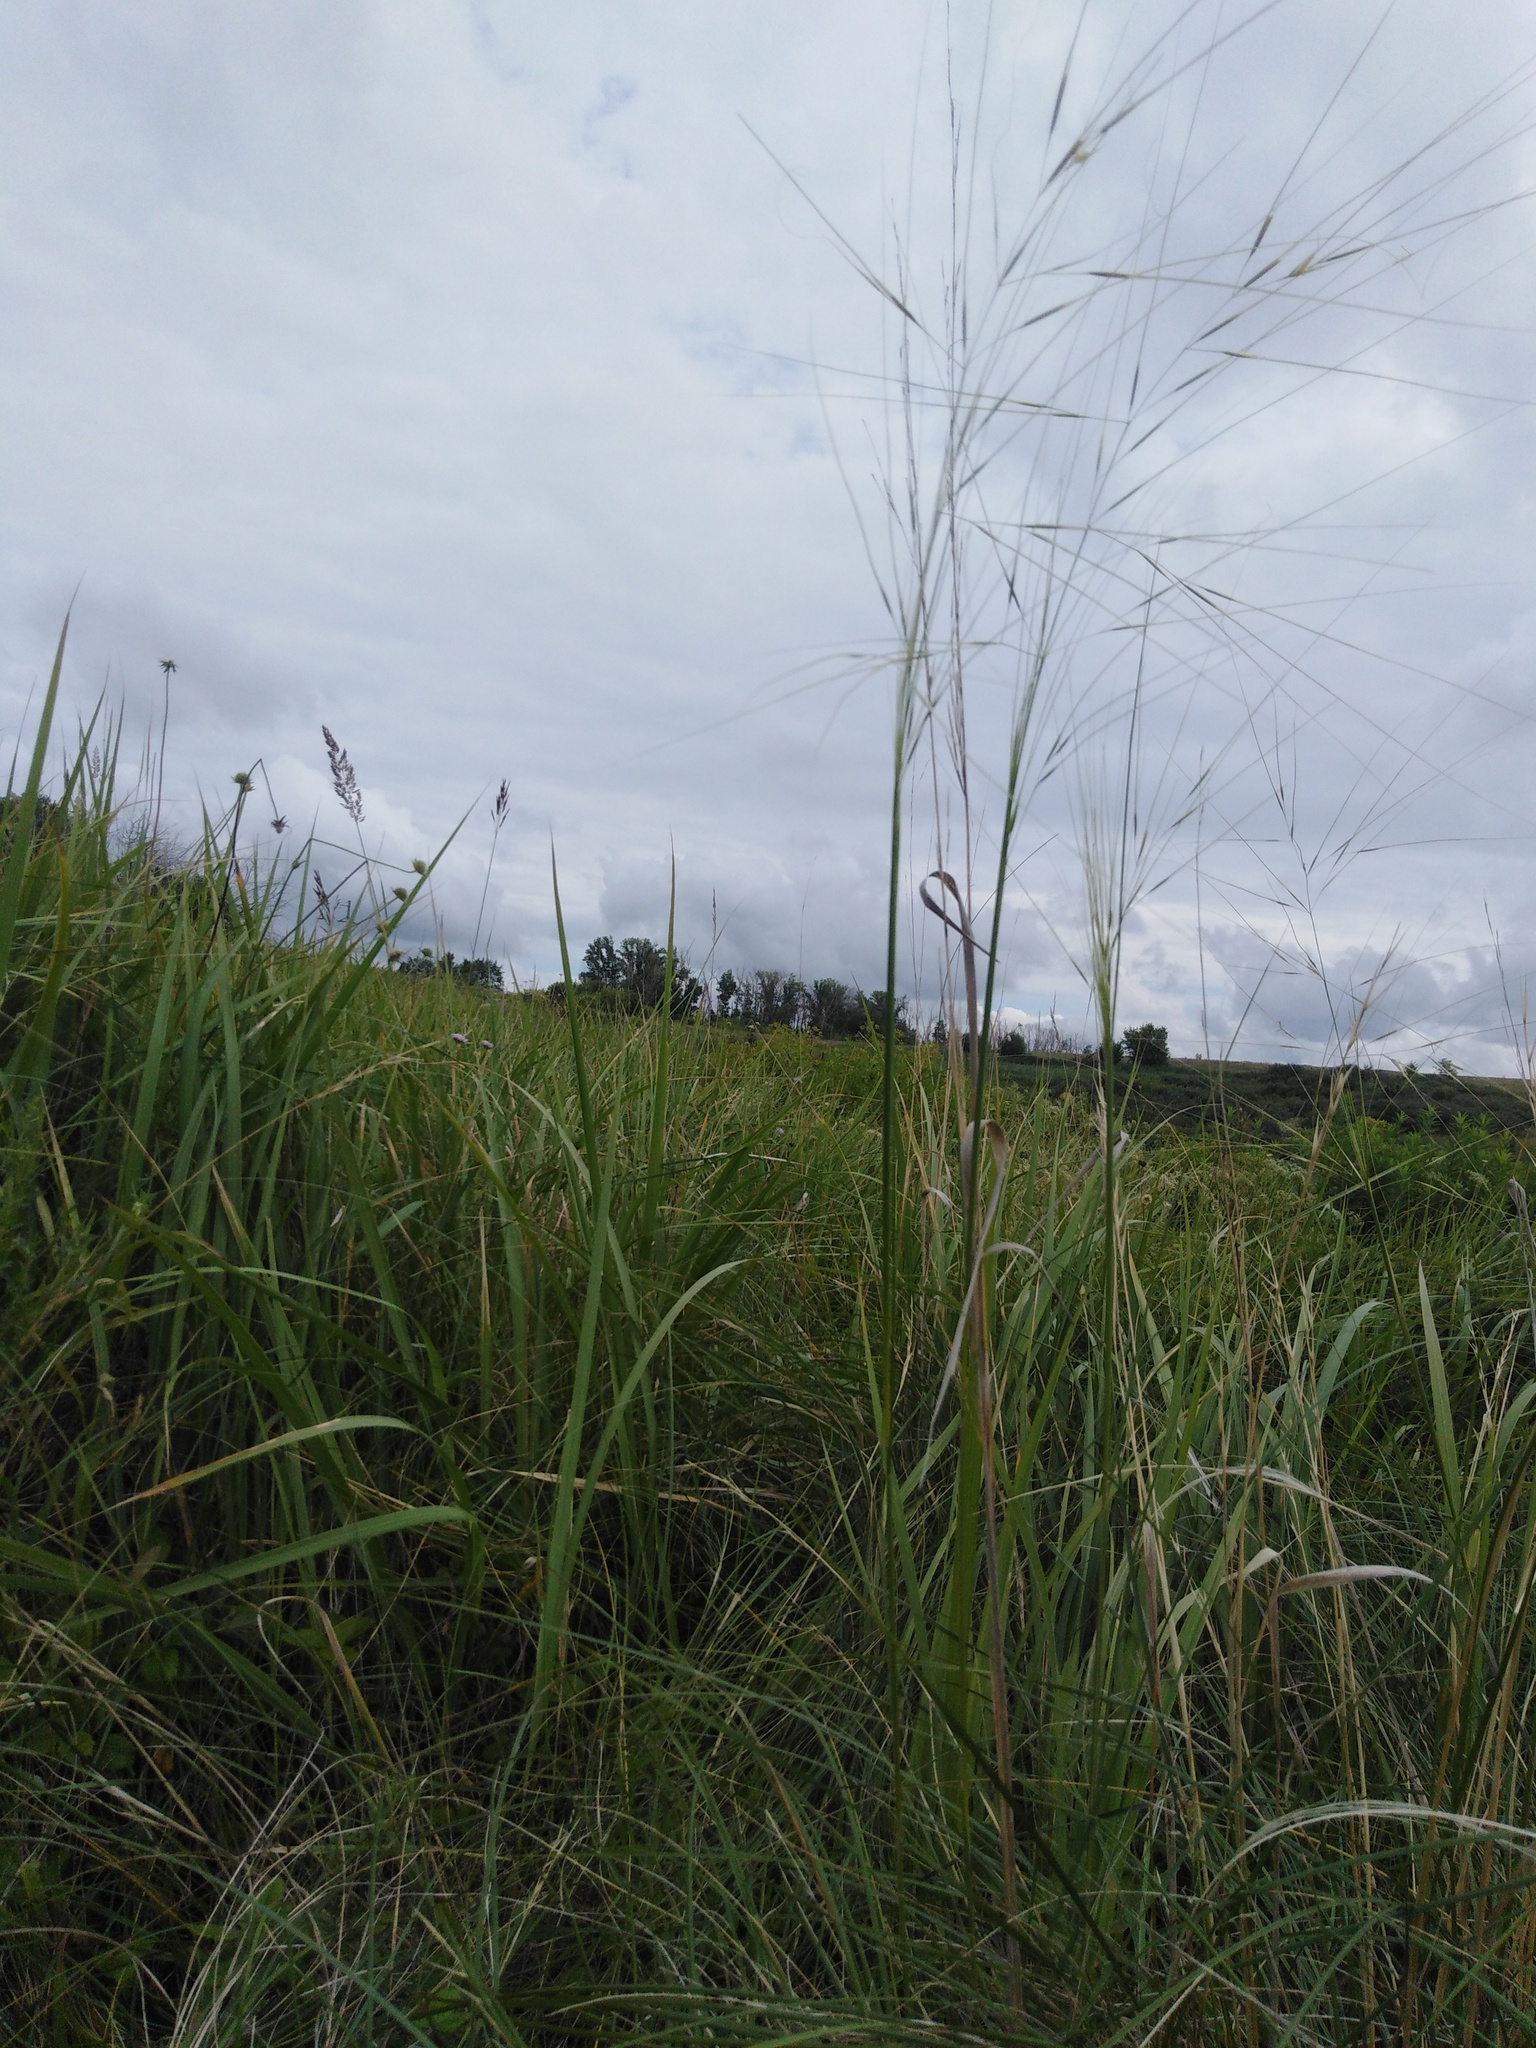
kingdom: Plantae
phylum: Tracheophyta
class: Liliopsida
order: Poales
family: Poaceae
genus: Stipa
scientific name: Stipa capillata
